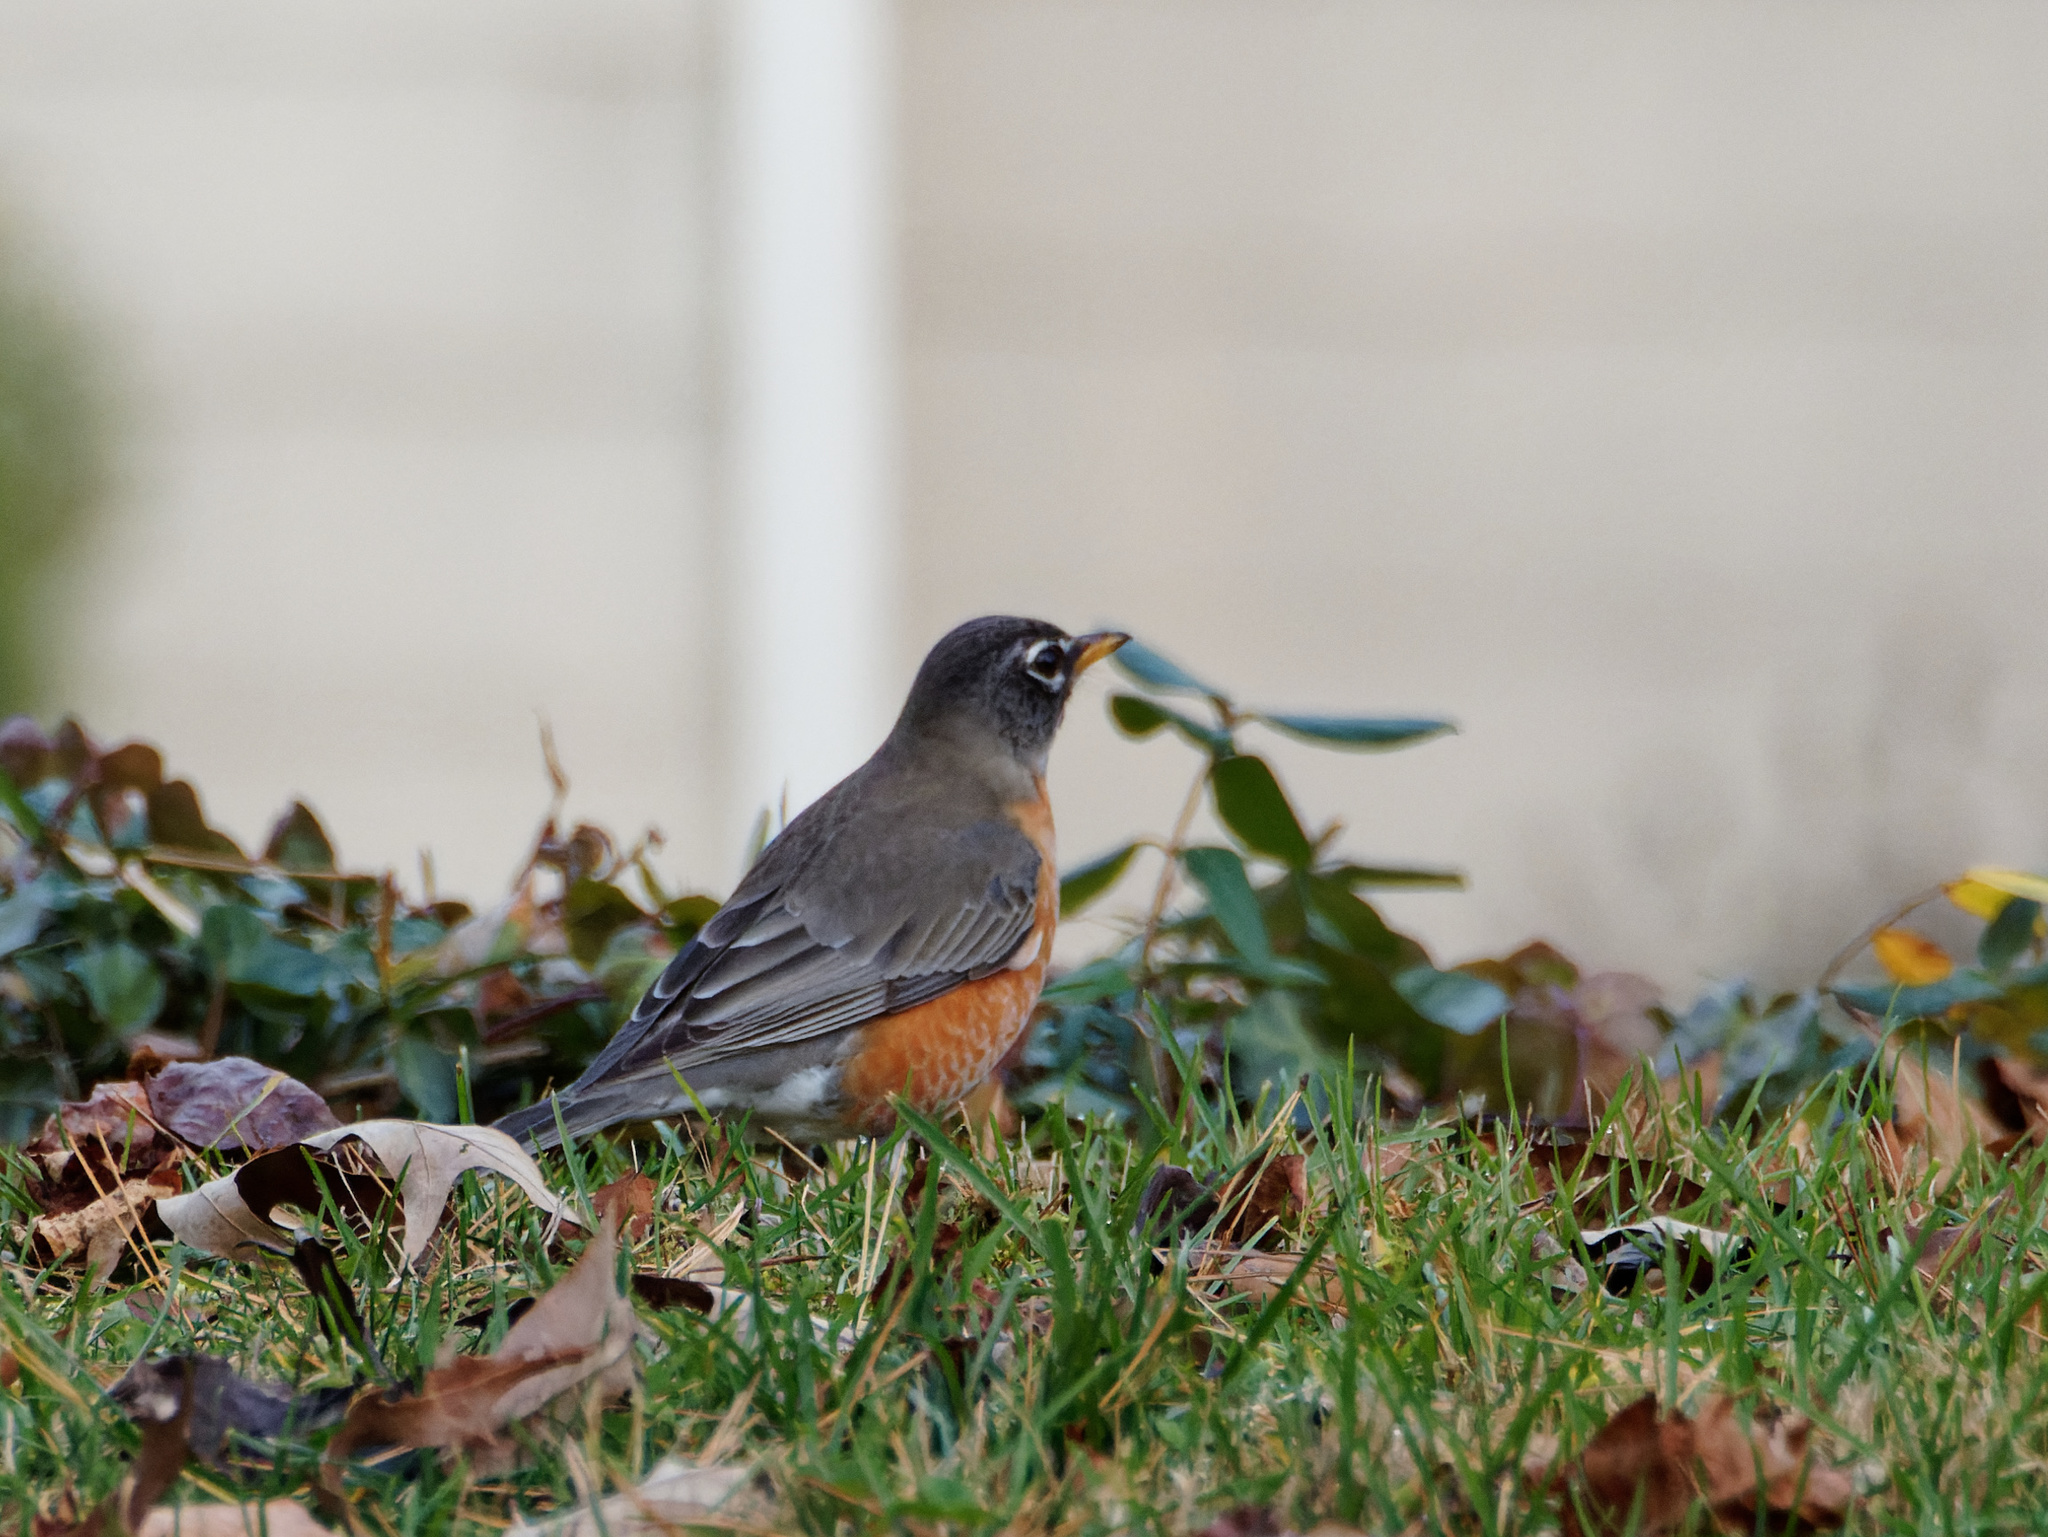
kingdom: Animalia
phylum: Chordata
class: Aves
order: Passeriformes
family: Turdidae
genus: Turdus
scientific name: Turdus migratorius
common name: American robin
